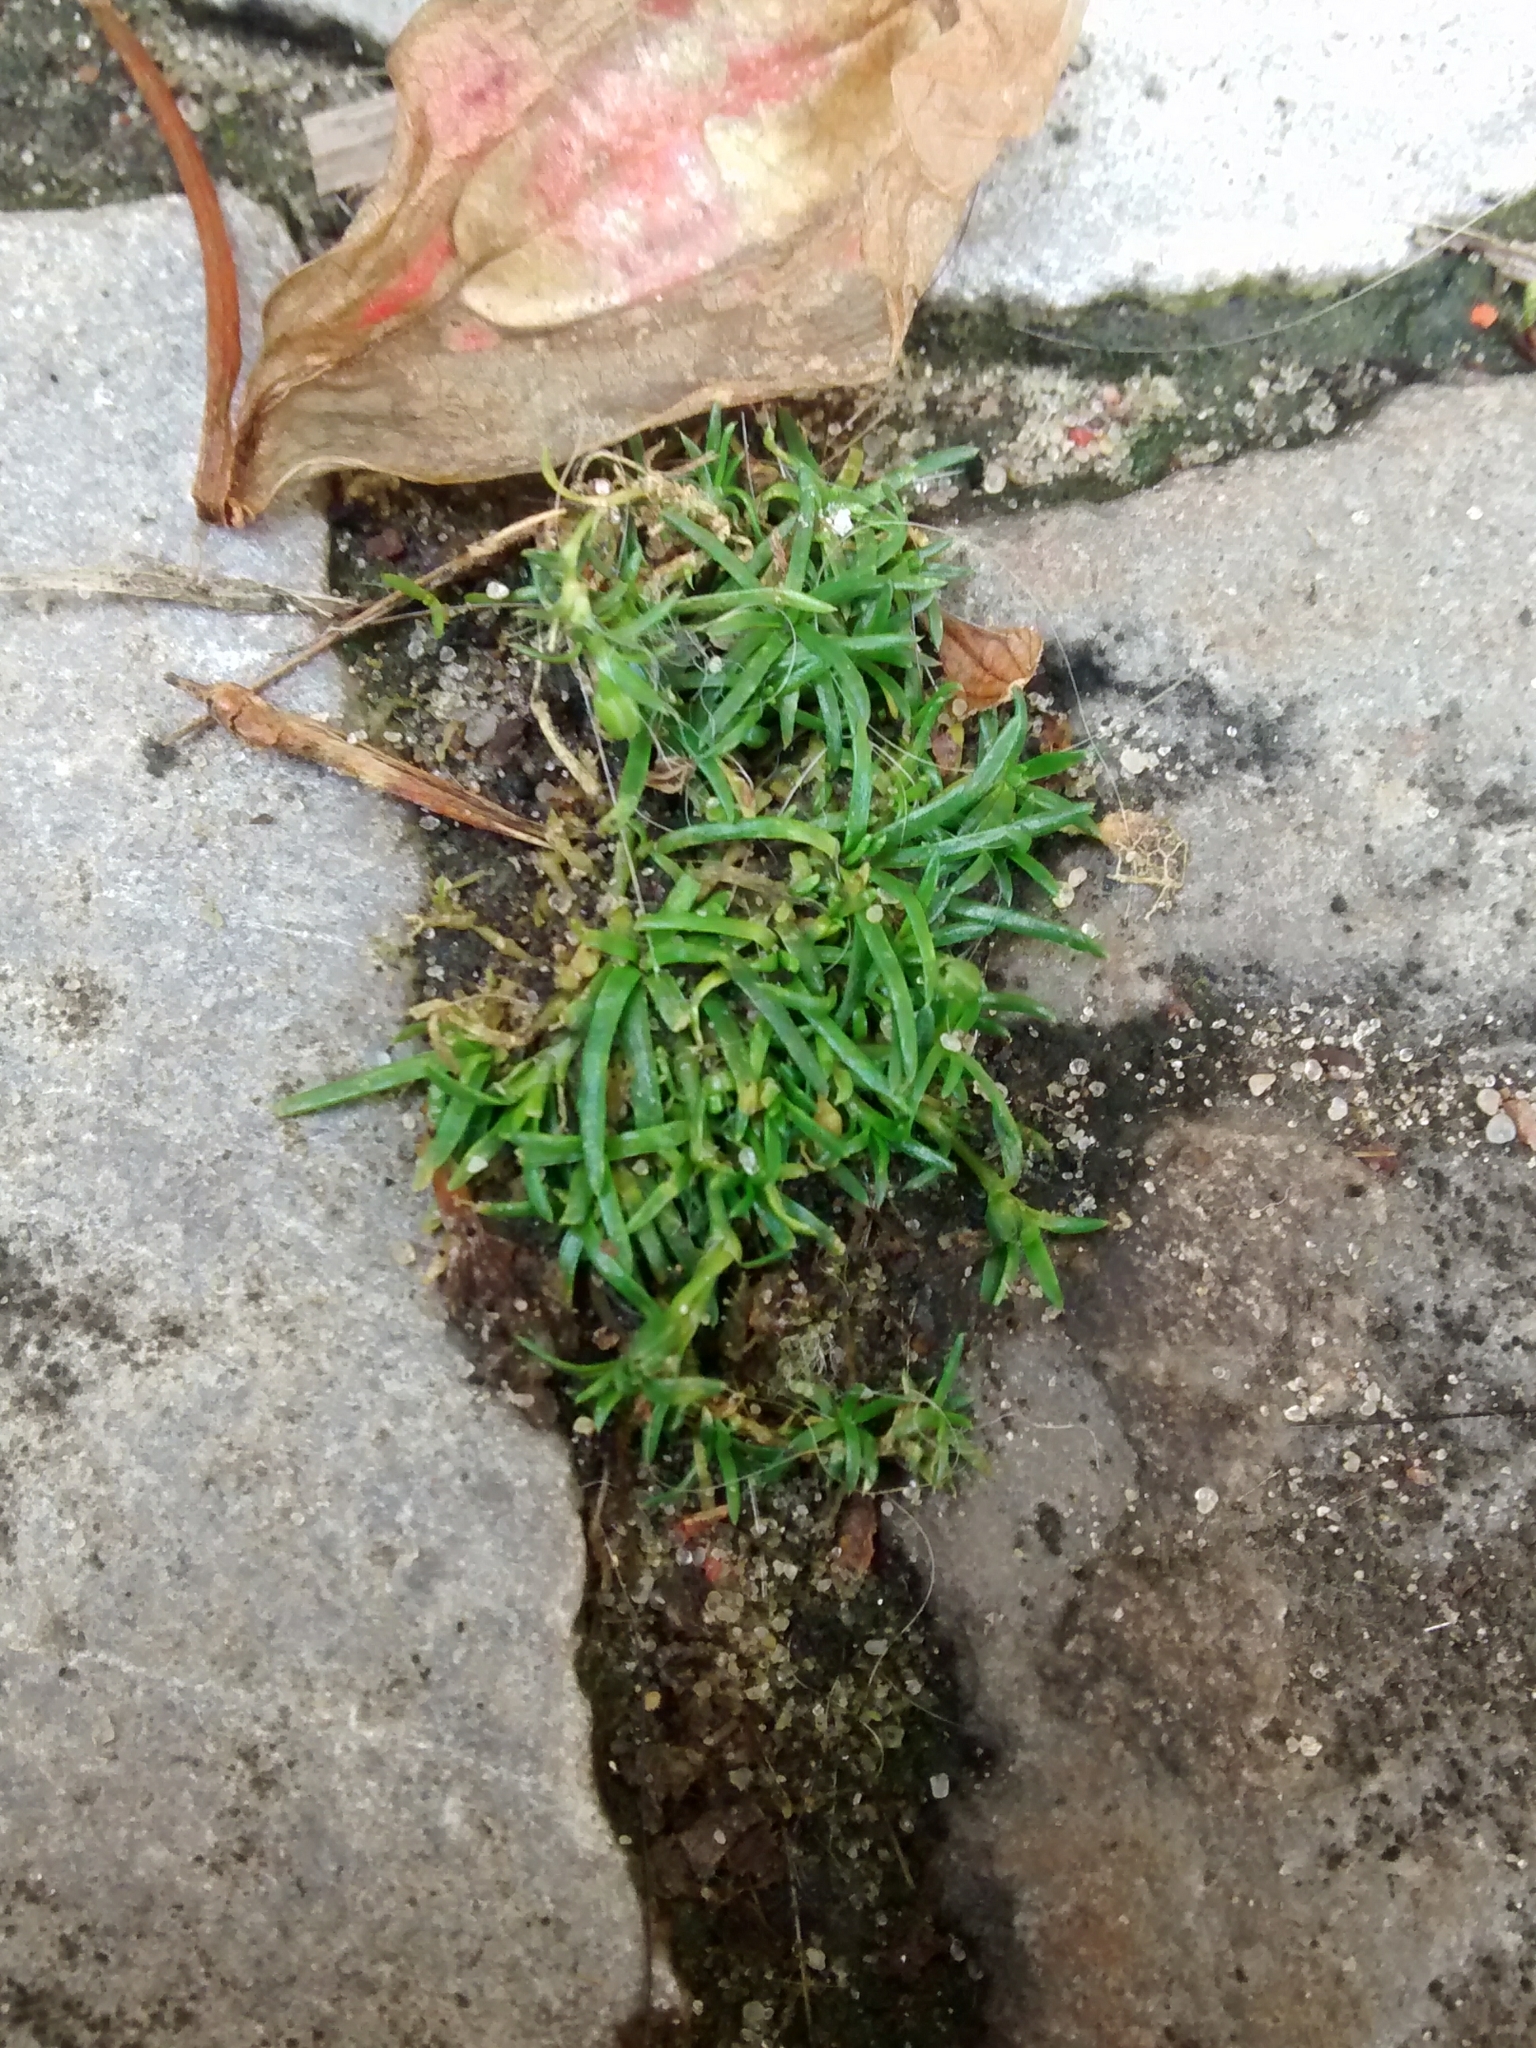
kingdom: Plantae
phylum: Tracheophyta
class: Magnoliopsida
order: Caryophyllales
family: Caryophyllaceae
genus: Sagina
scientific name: Sagina procumbens
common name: Procumbent pearlwort
